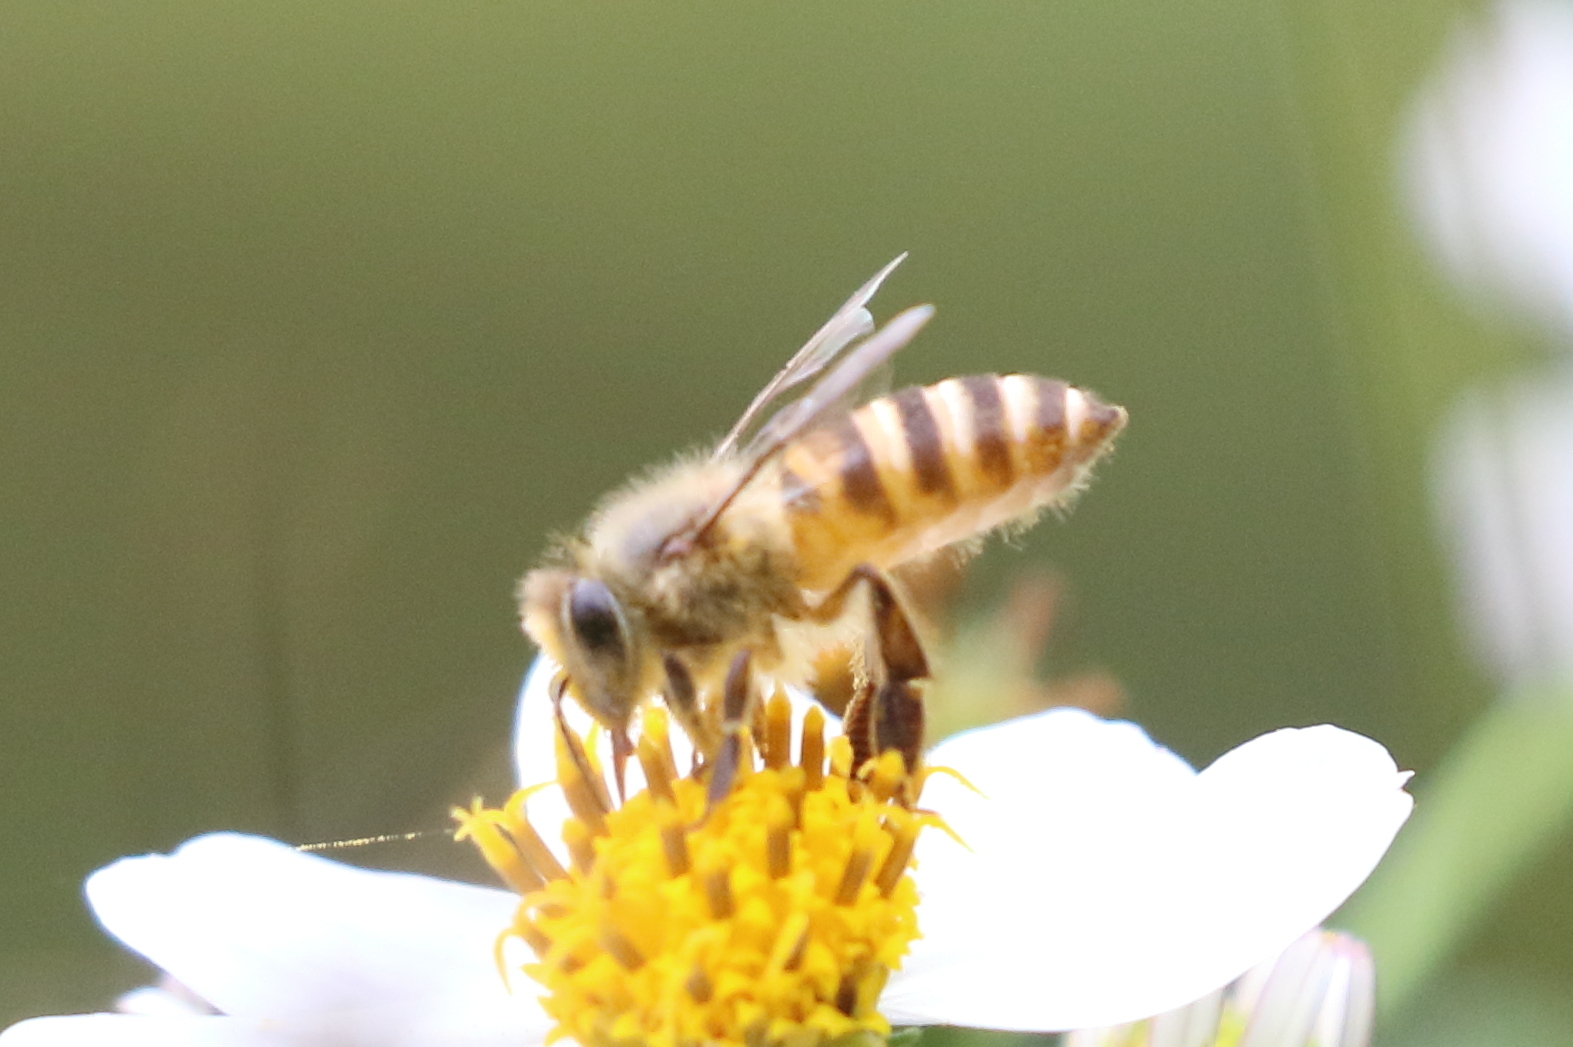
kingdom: Animalia
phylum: Arthropoda
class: Insecta
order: Hymenoptera
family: Apidae
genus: Apis
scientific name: Apis cerana
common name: Honey bee
